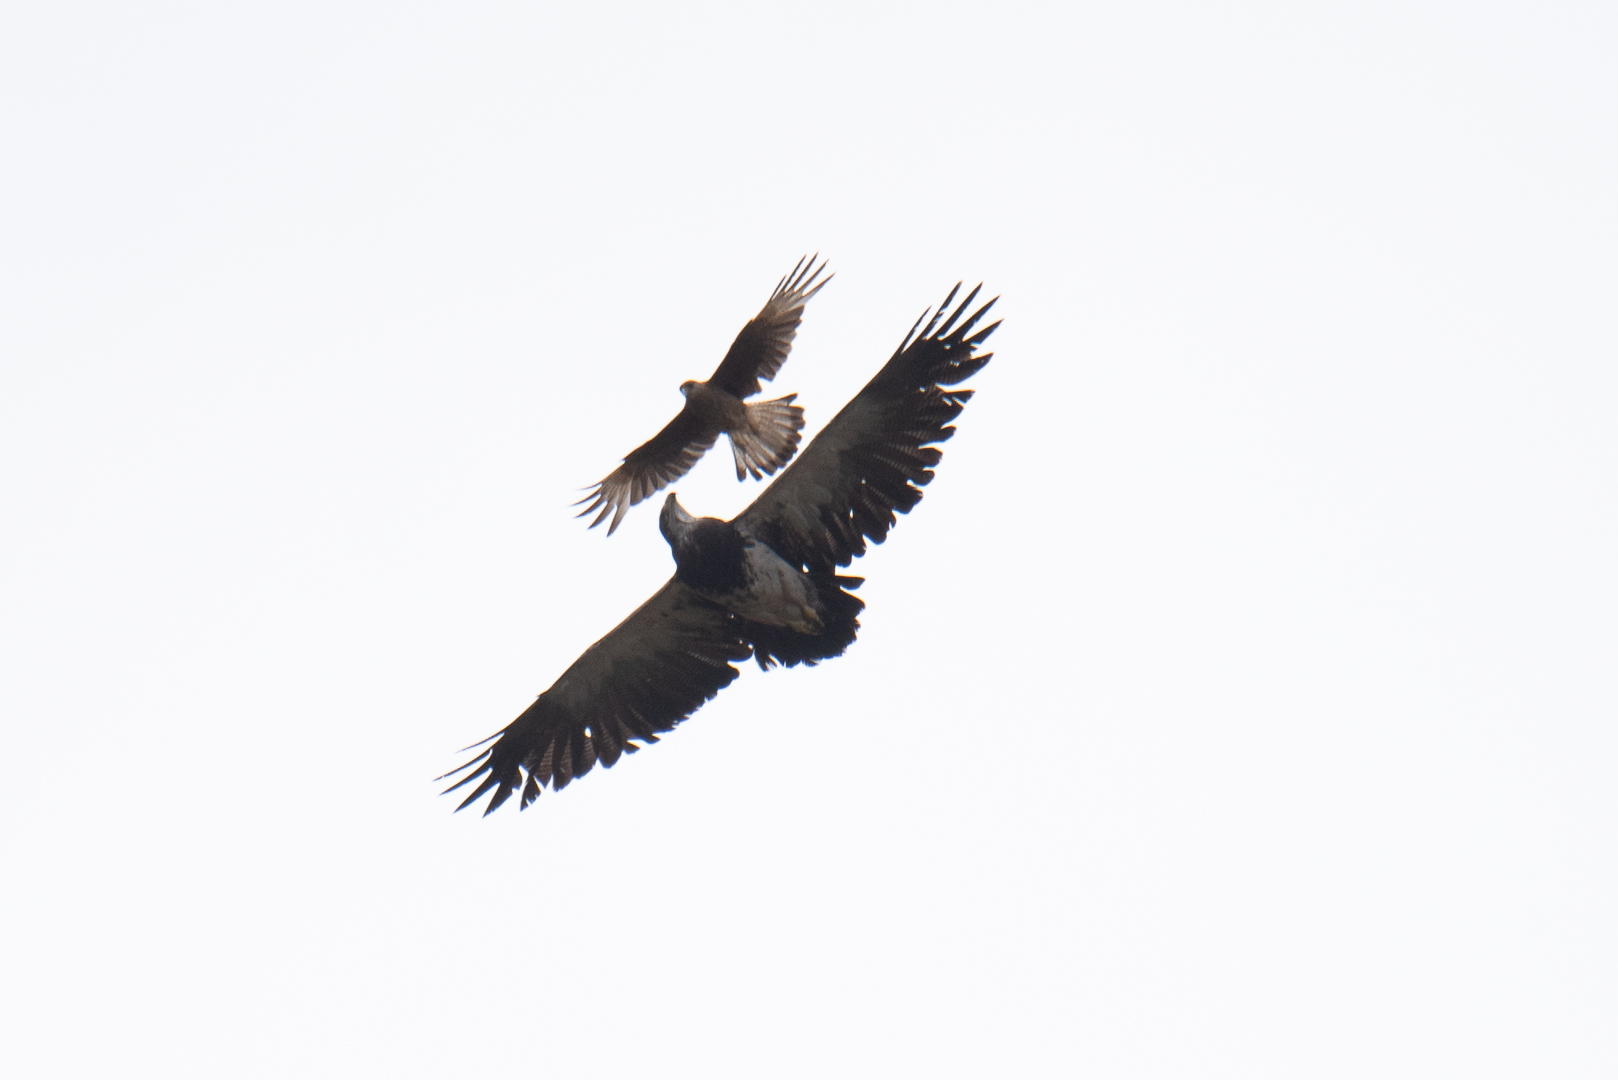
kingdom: Animalia
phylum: Chordata
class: Aves
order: Accipitriformes
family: Accipitridae
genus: Geranoaetus
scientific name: Geranoaetus melanoleucus
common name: Black-chested buzzard-eagle
